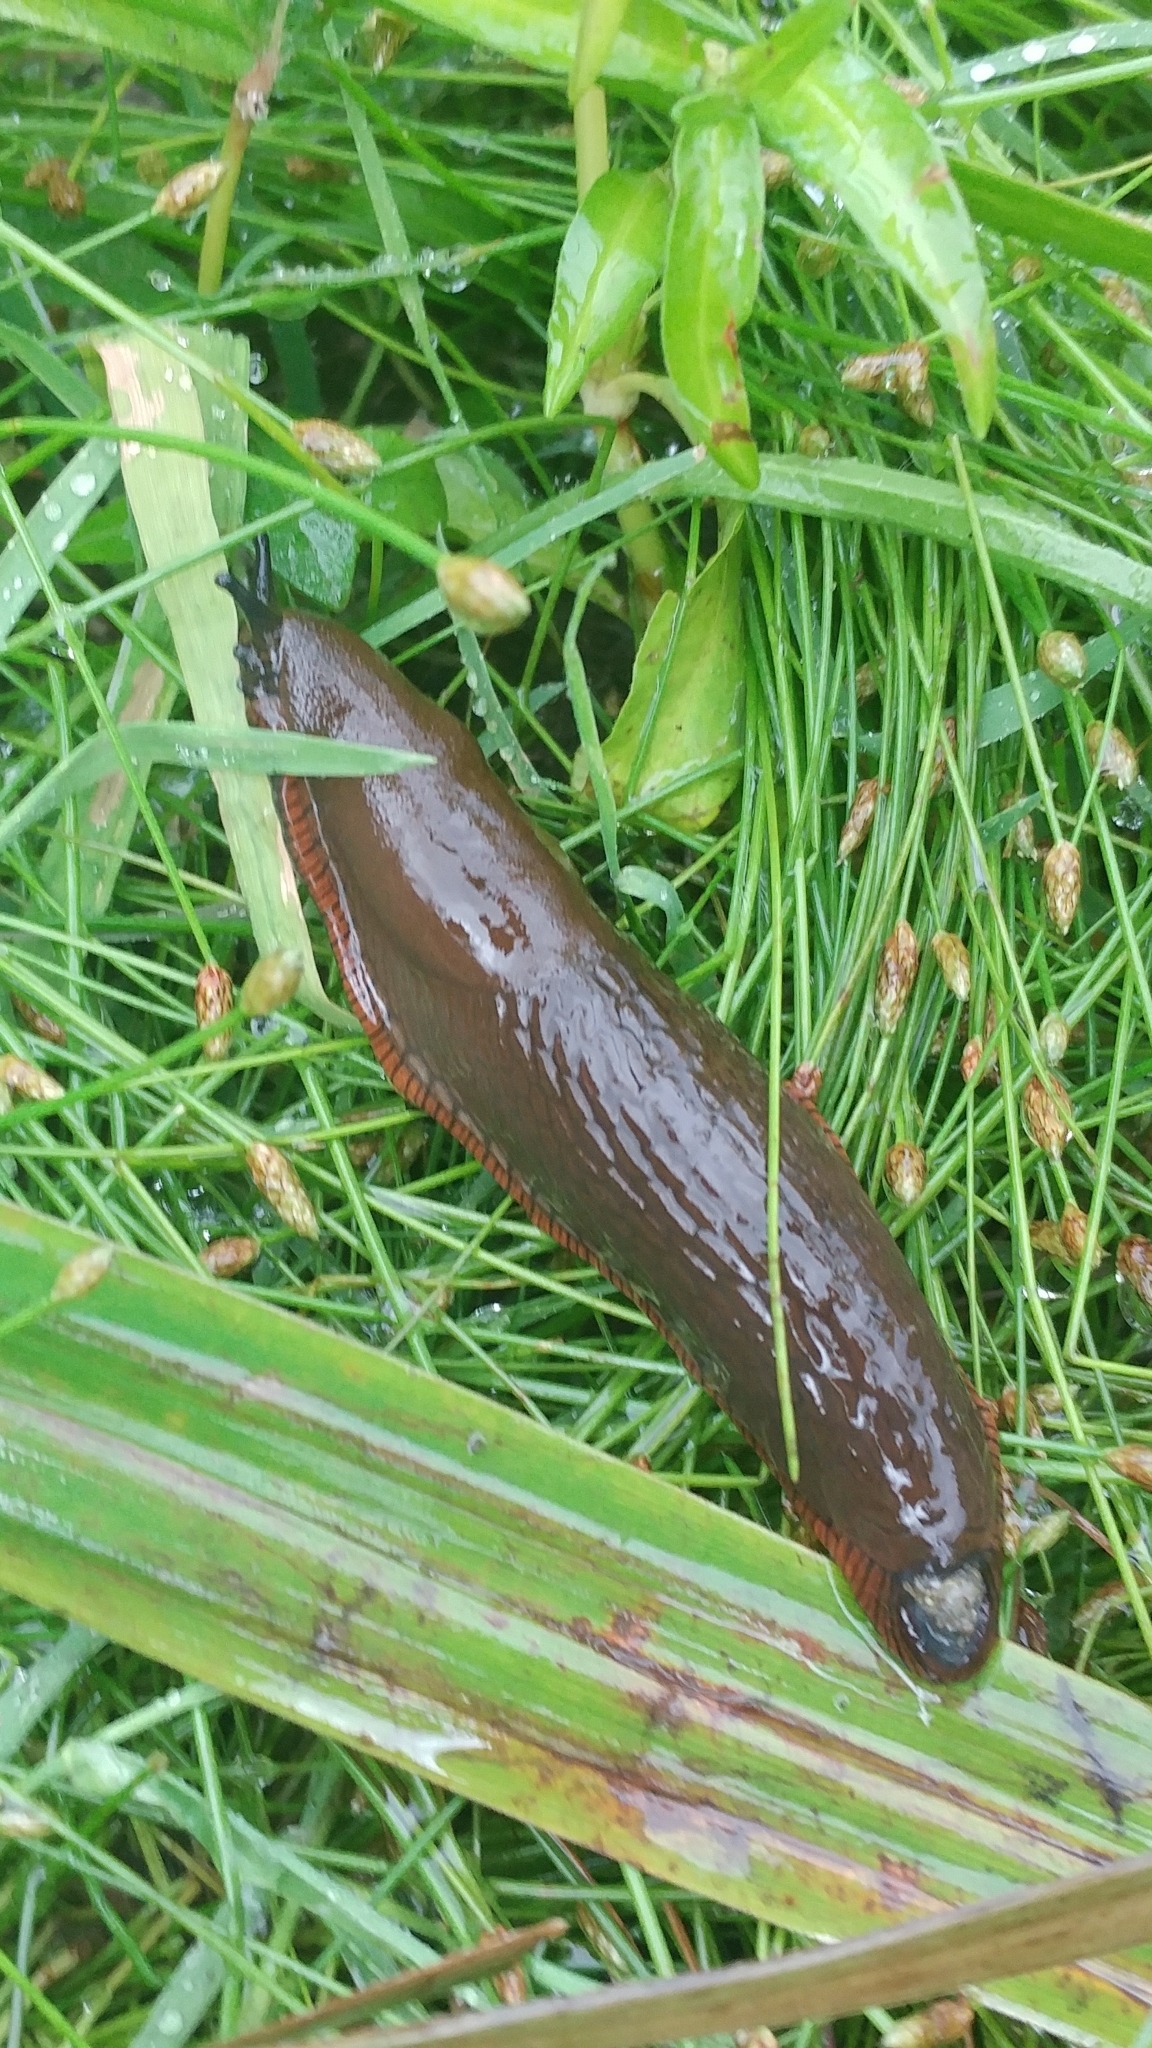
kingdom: Animalia
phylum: Mollusca
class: Gastropoda
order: Stylommatophora
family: Arionidae
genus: Arion
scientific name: Arion
